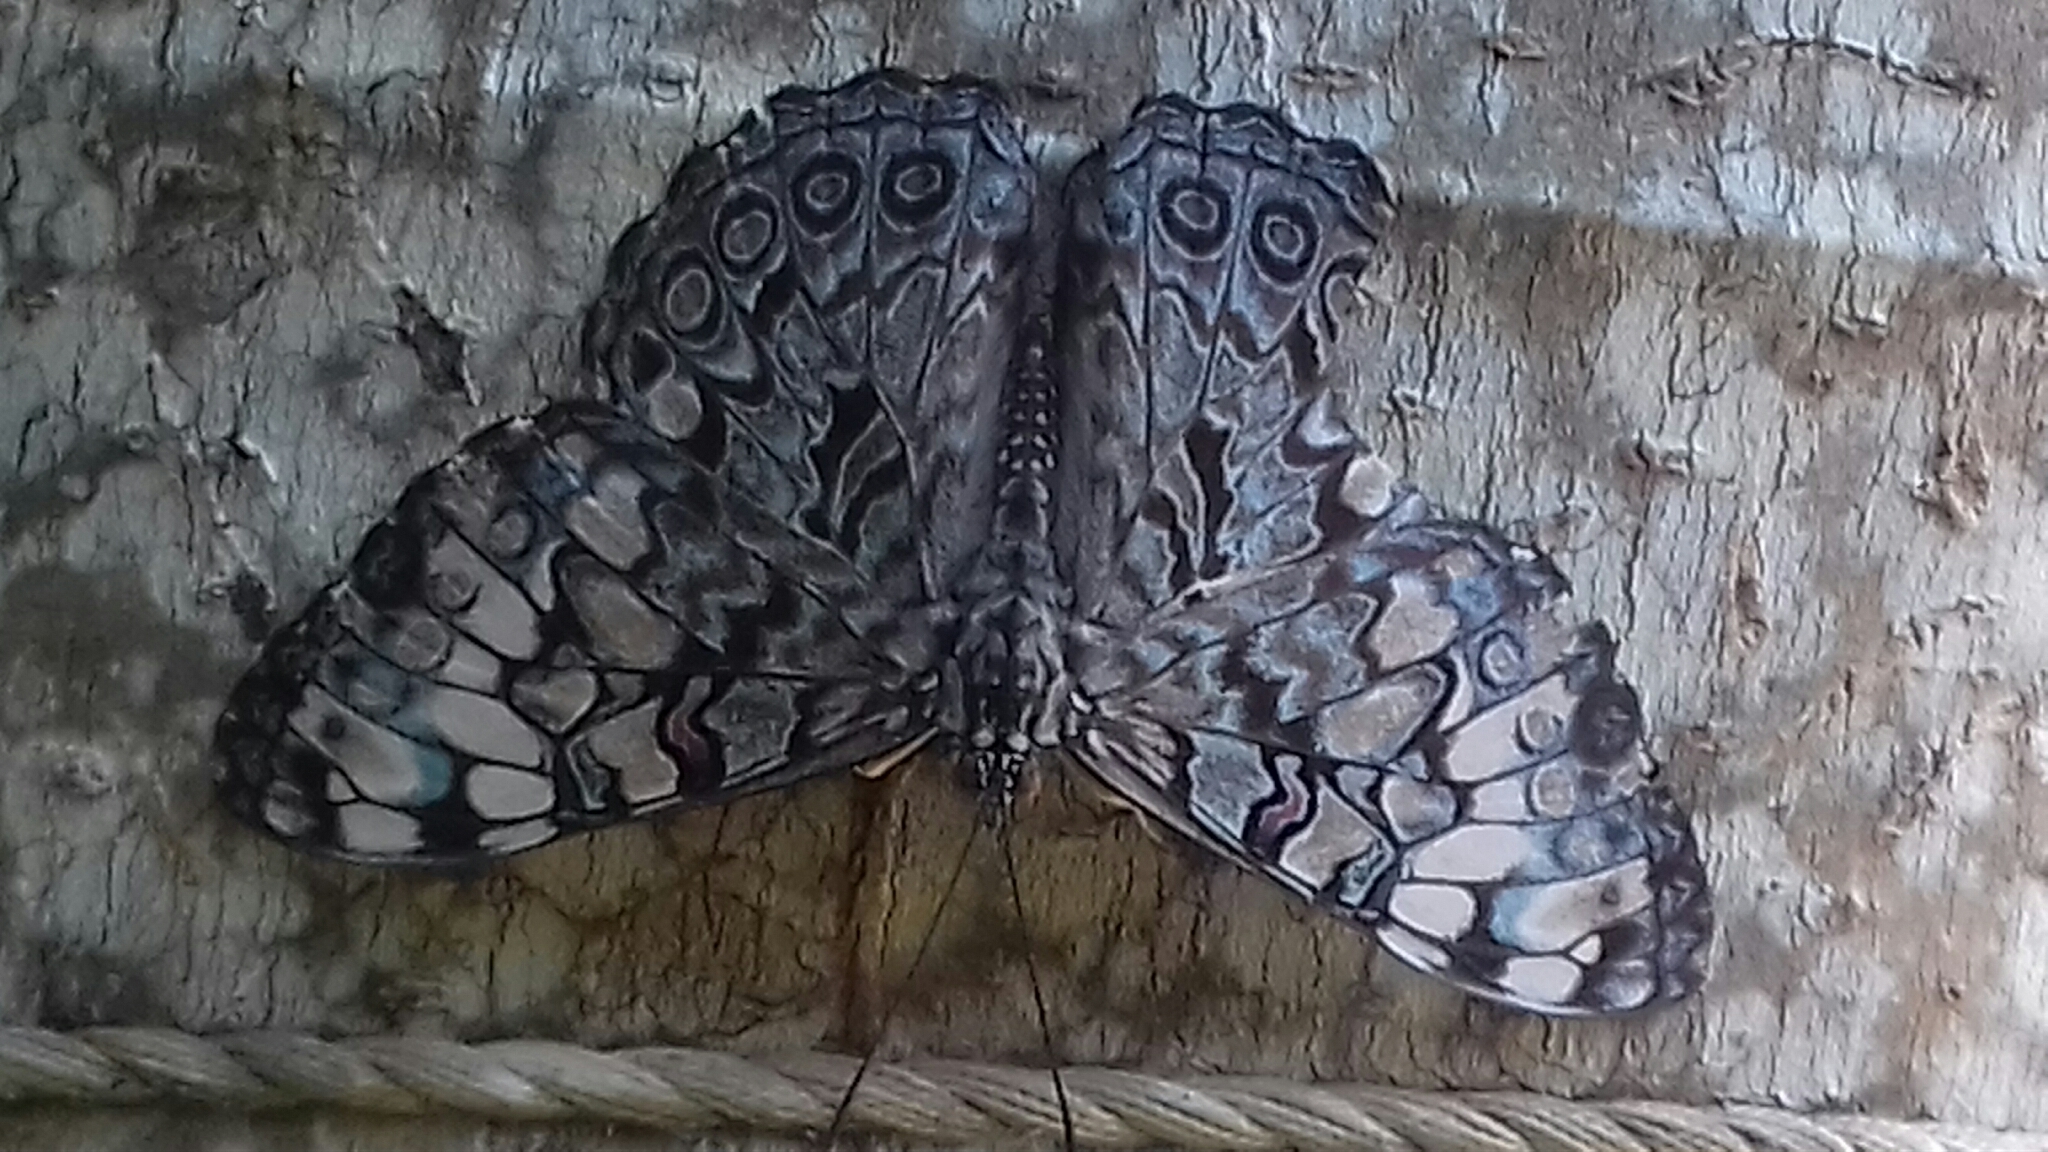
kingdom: Animalia
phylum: Arthropoda
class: Insecta
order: Lepidoptera
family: Nymphalidae
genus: Hamadryas
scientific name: Hamadryas guatemalena
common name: Guatemalan cracker
